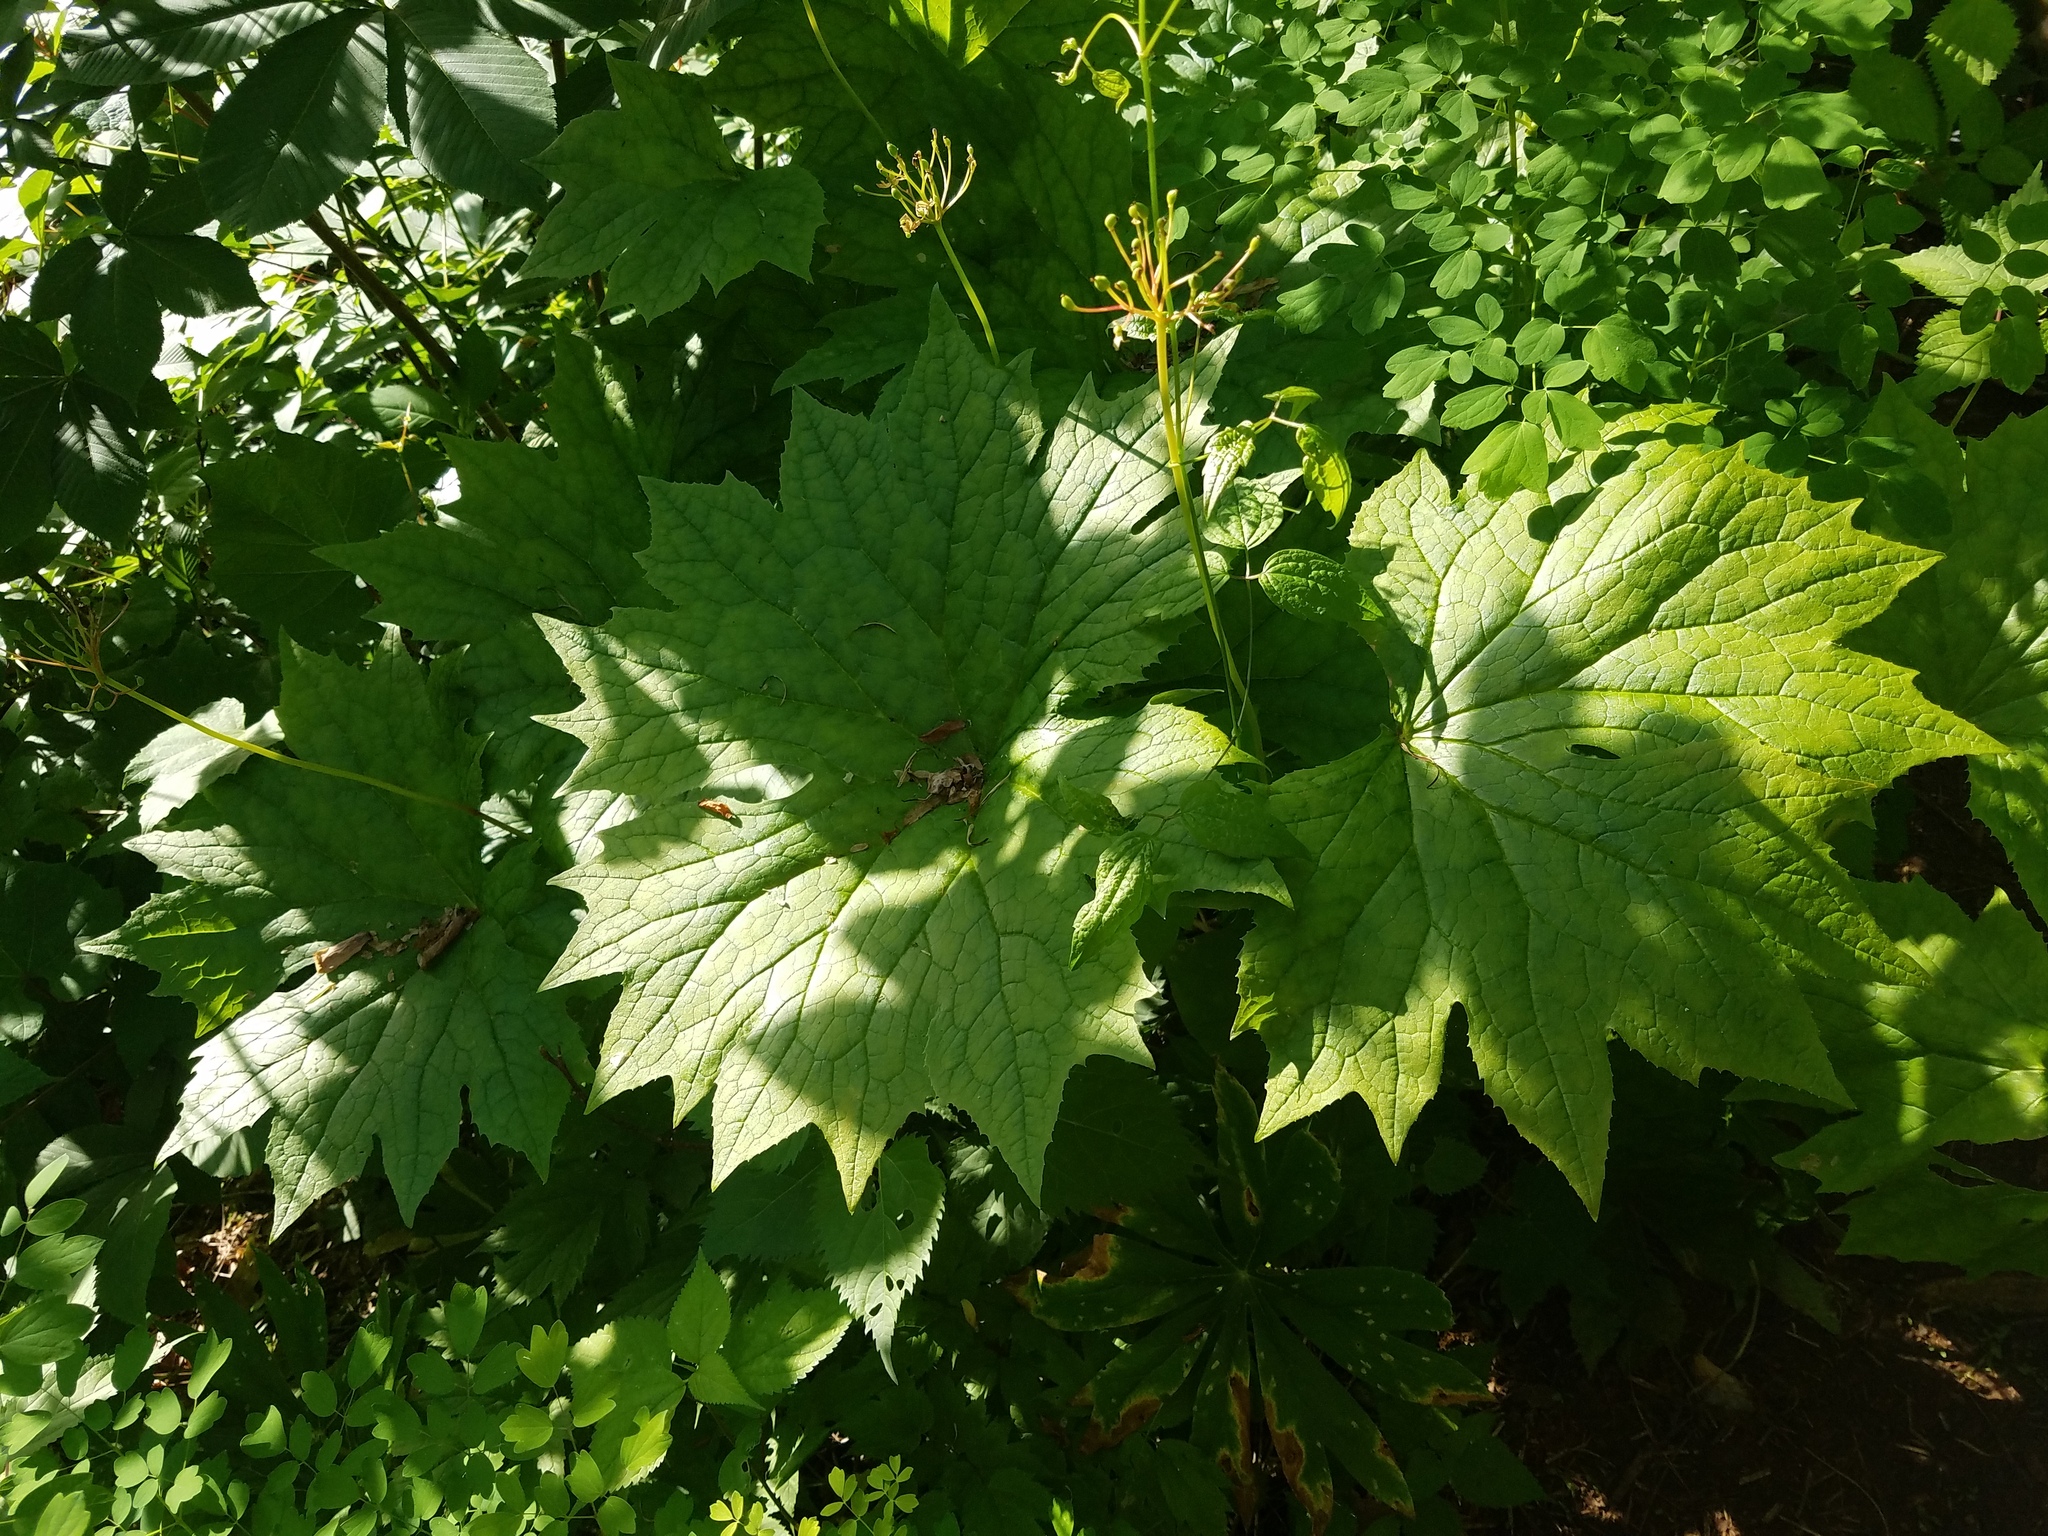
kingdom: Plantae
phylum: Tracheophyta
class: Magnoliopsida
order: Ranunculales
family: Berberidaceae
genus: Diphylleia
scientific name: Diphylleia cymosa
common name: Umbrella-leaf
